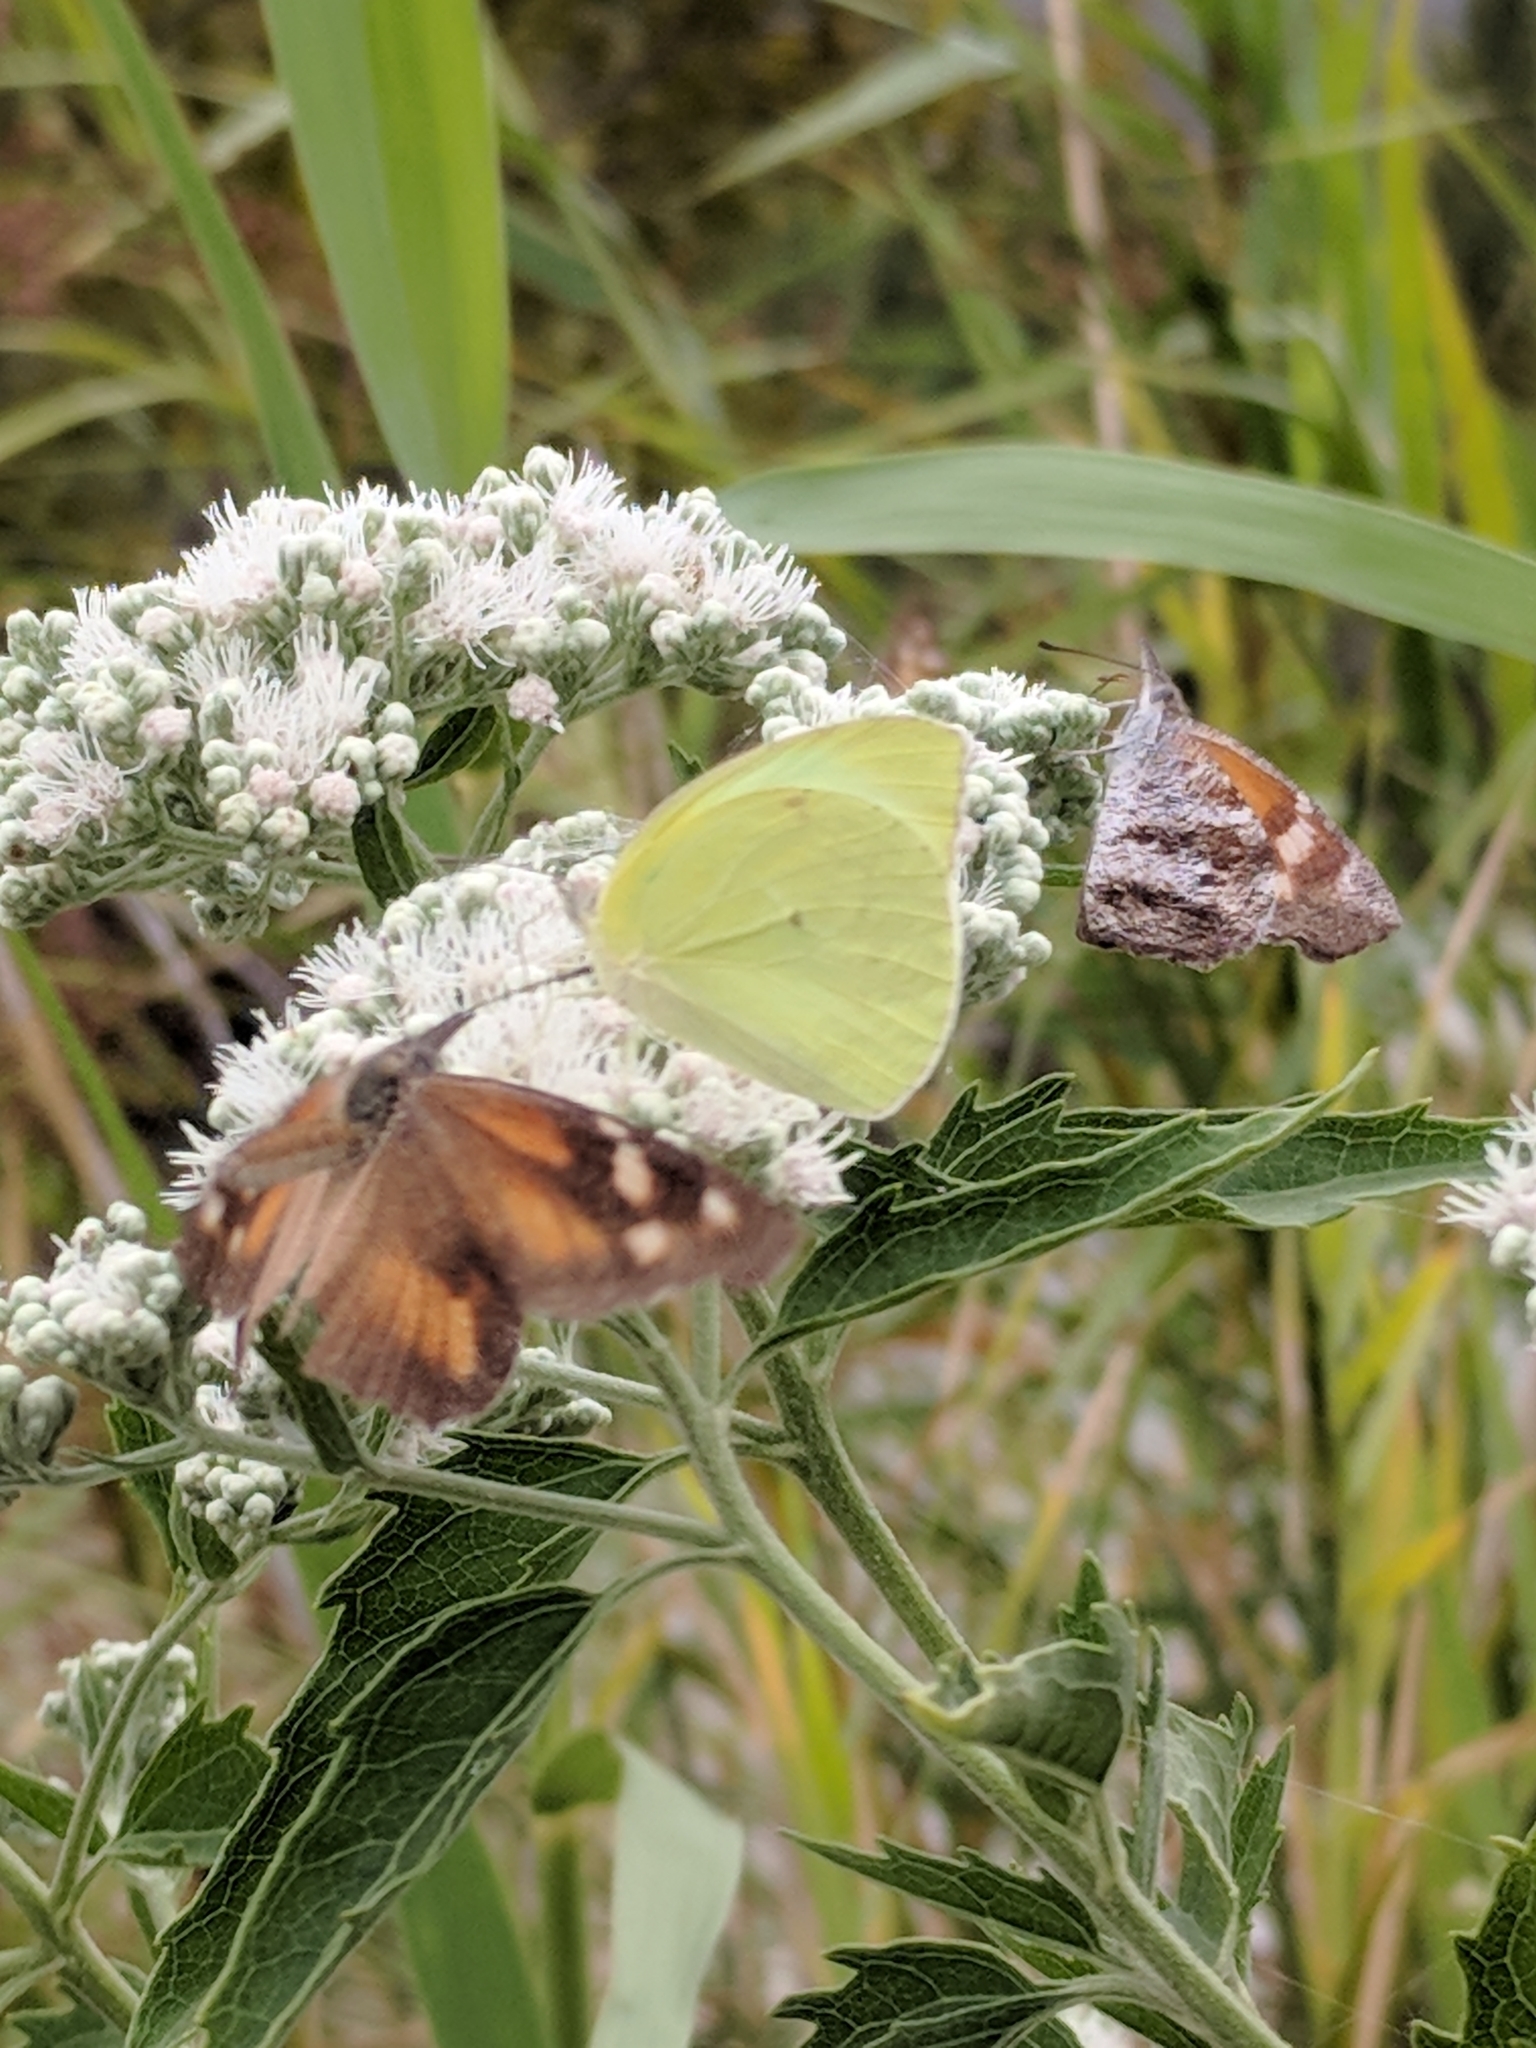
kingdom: Animalia
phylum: Arthropoda
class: Insecta
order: Lepidoptera
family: Pieridae
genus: Kricogonia
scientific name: Kricogonia lyside
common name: Guayacan sulphur,
